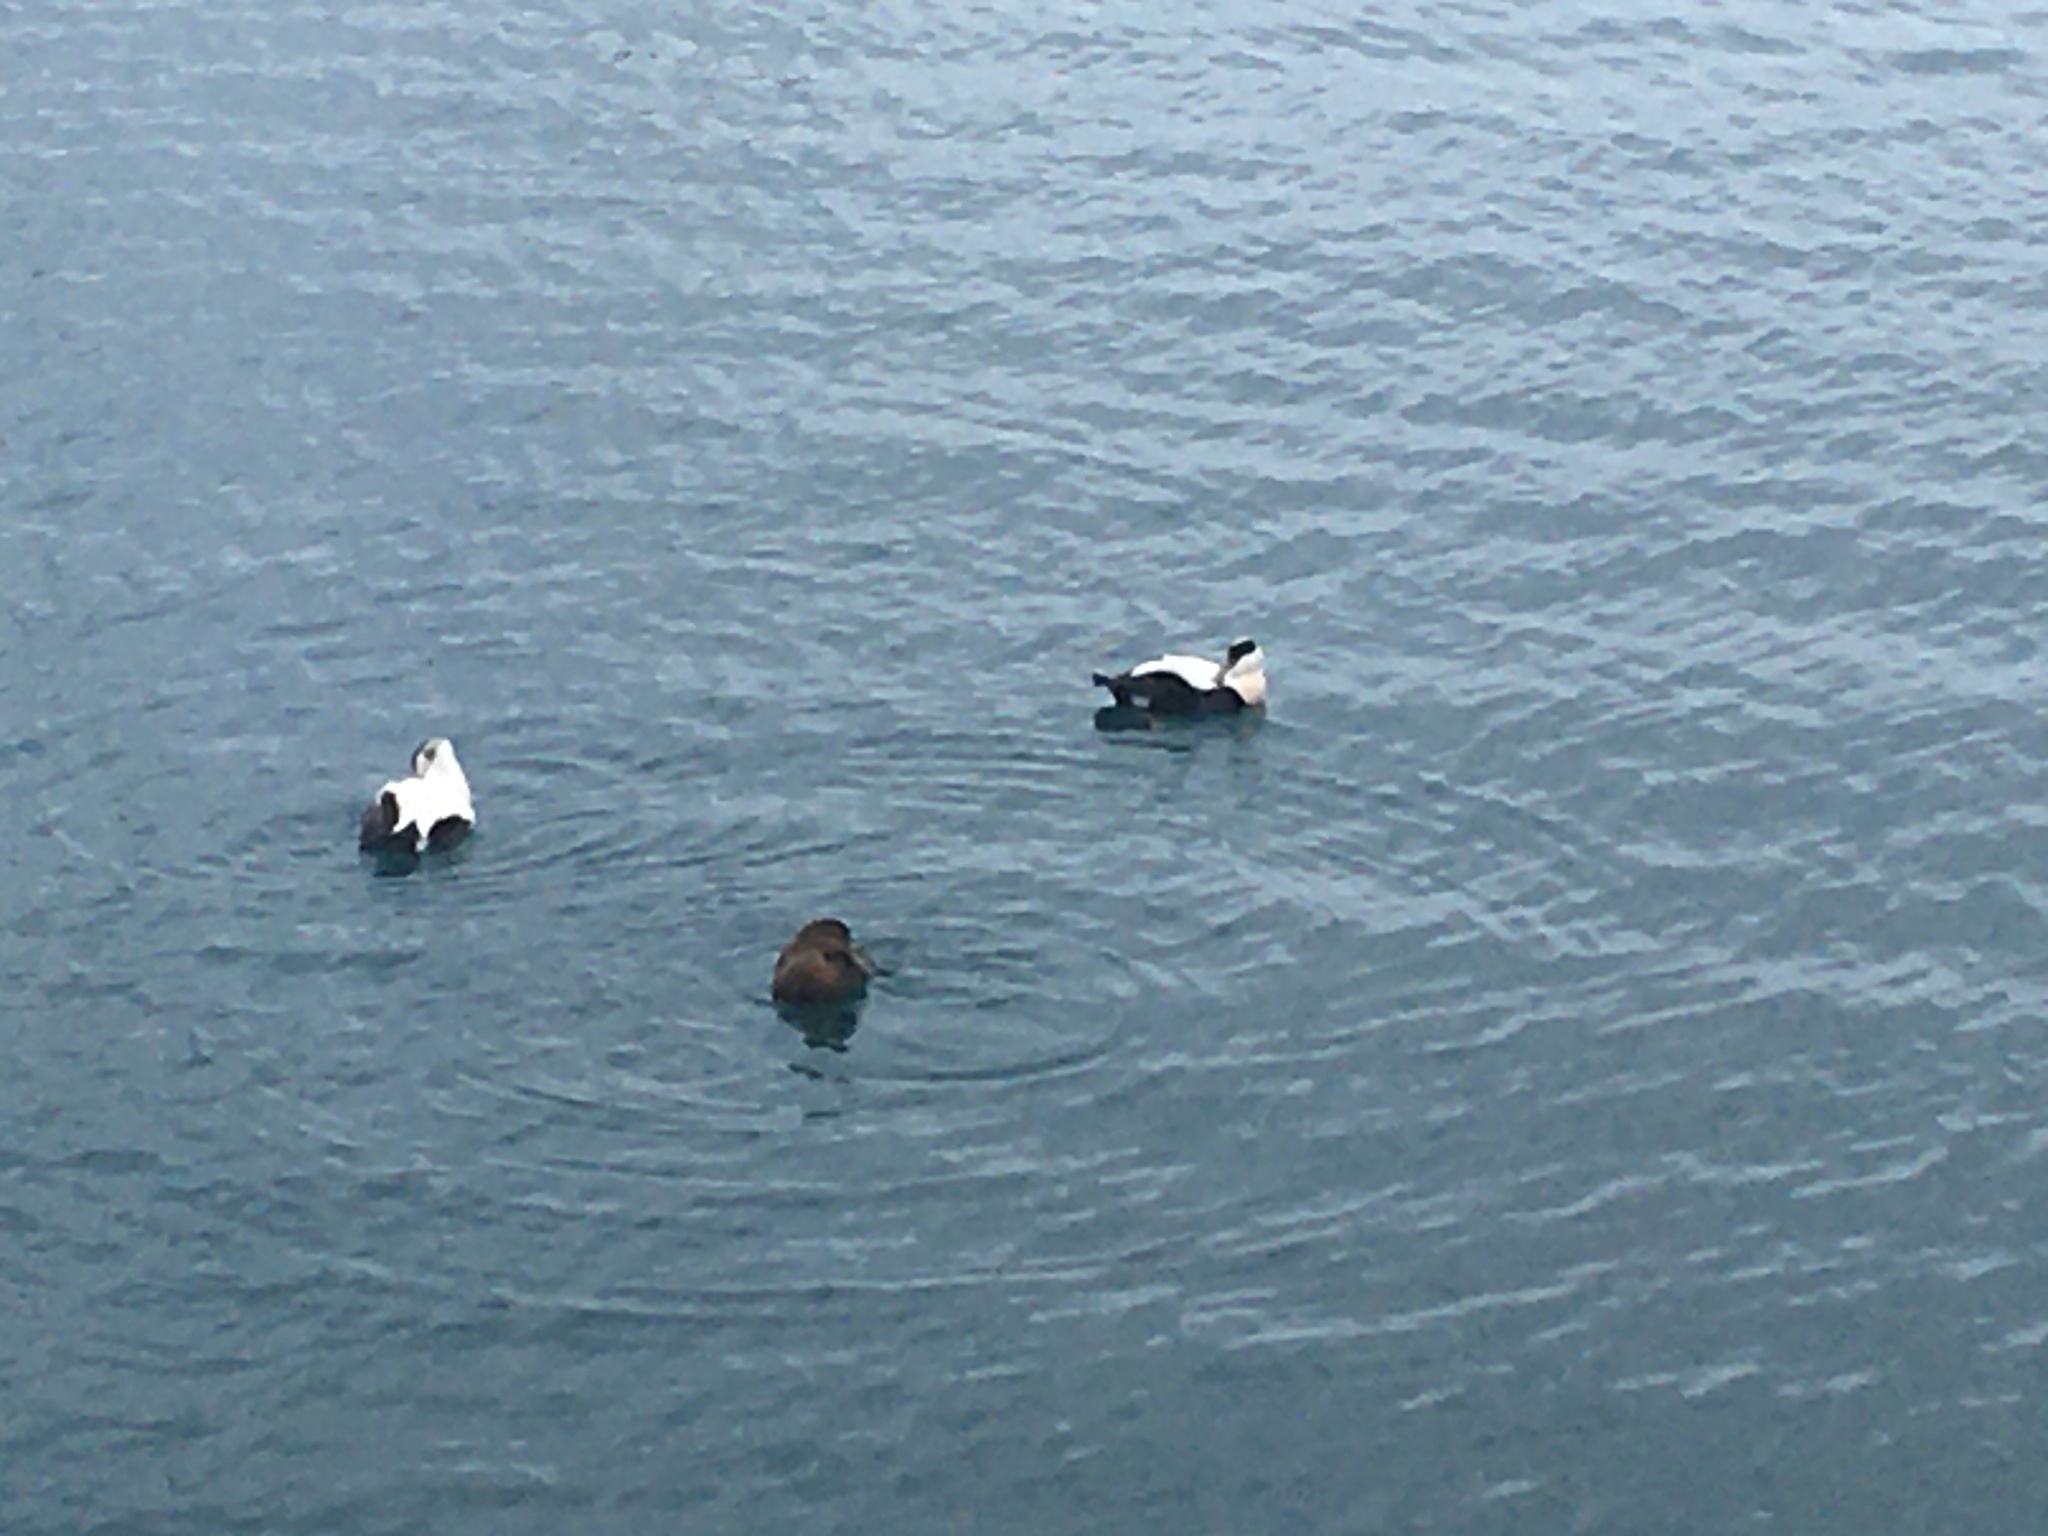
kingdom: Animalia
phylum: Chordata
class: Aves
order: Anseriformes
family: Anatidae
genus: Somateria
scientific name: Somateria mollissima
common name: Common eider
